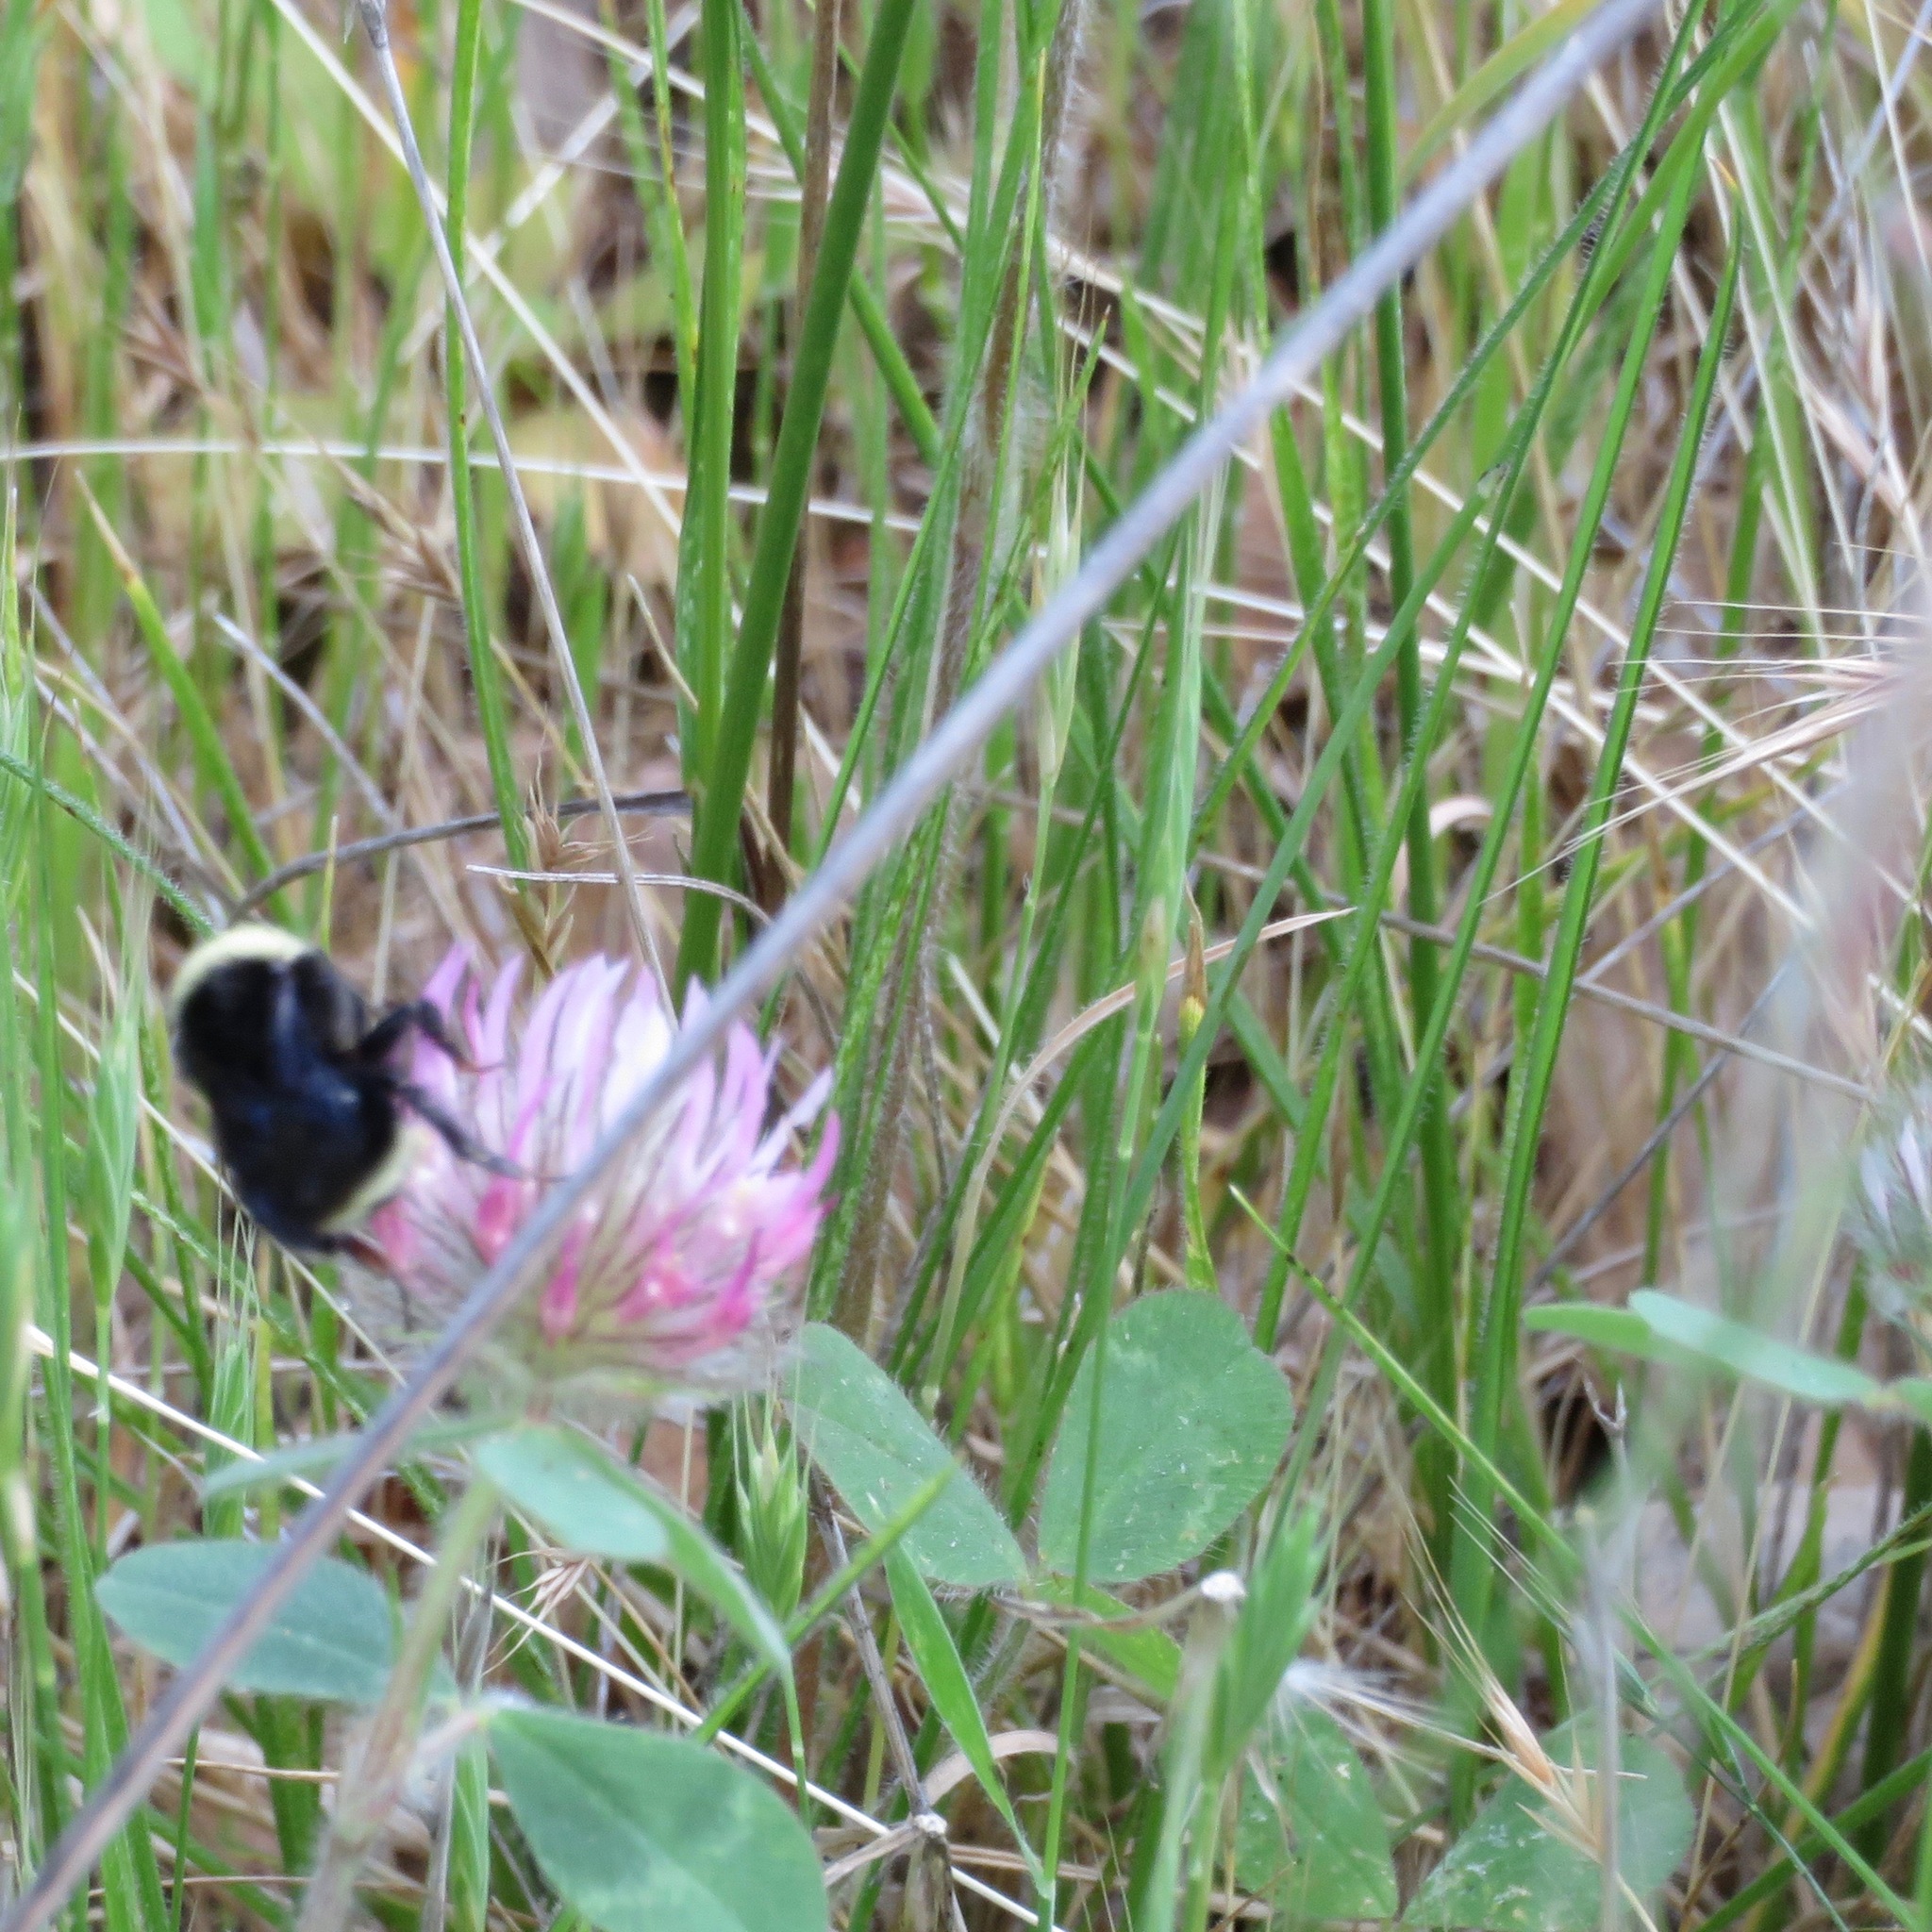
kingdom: Animalia
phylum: Arthropoda
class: Insecta
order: Hymenoptera
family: Apidae
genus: Bombus
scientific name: Bombus
